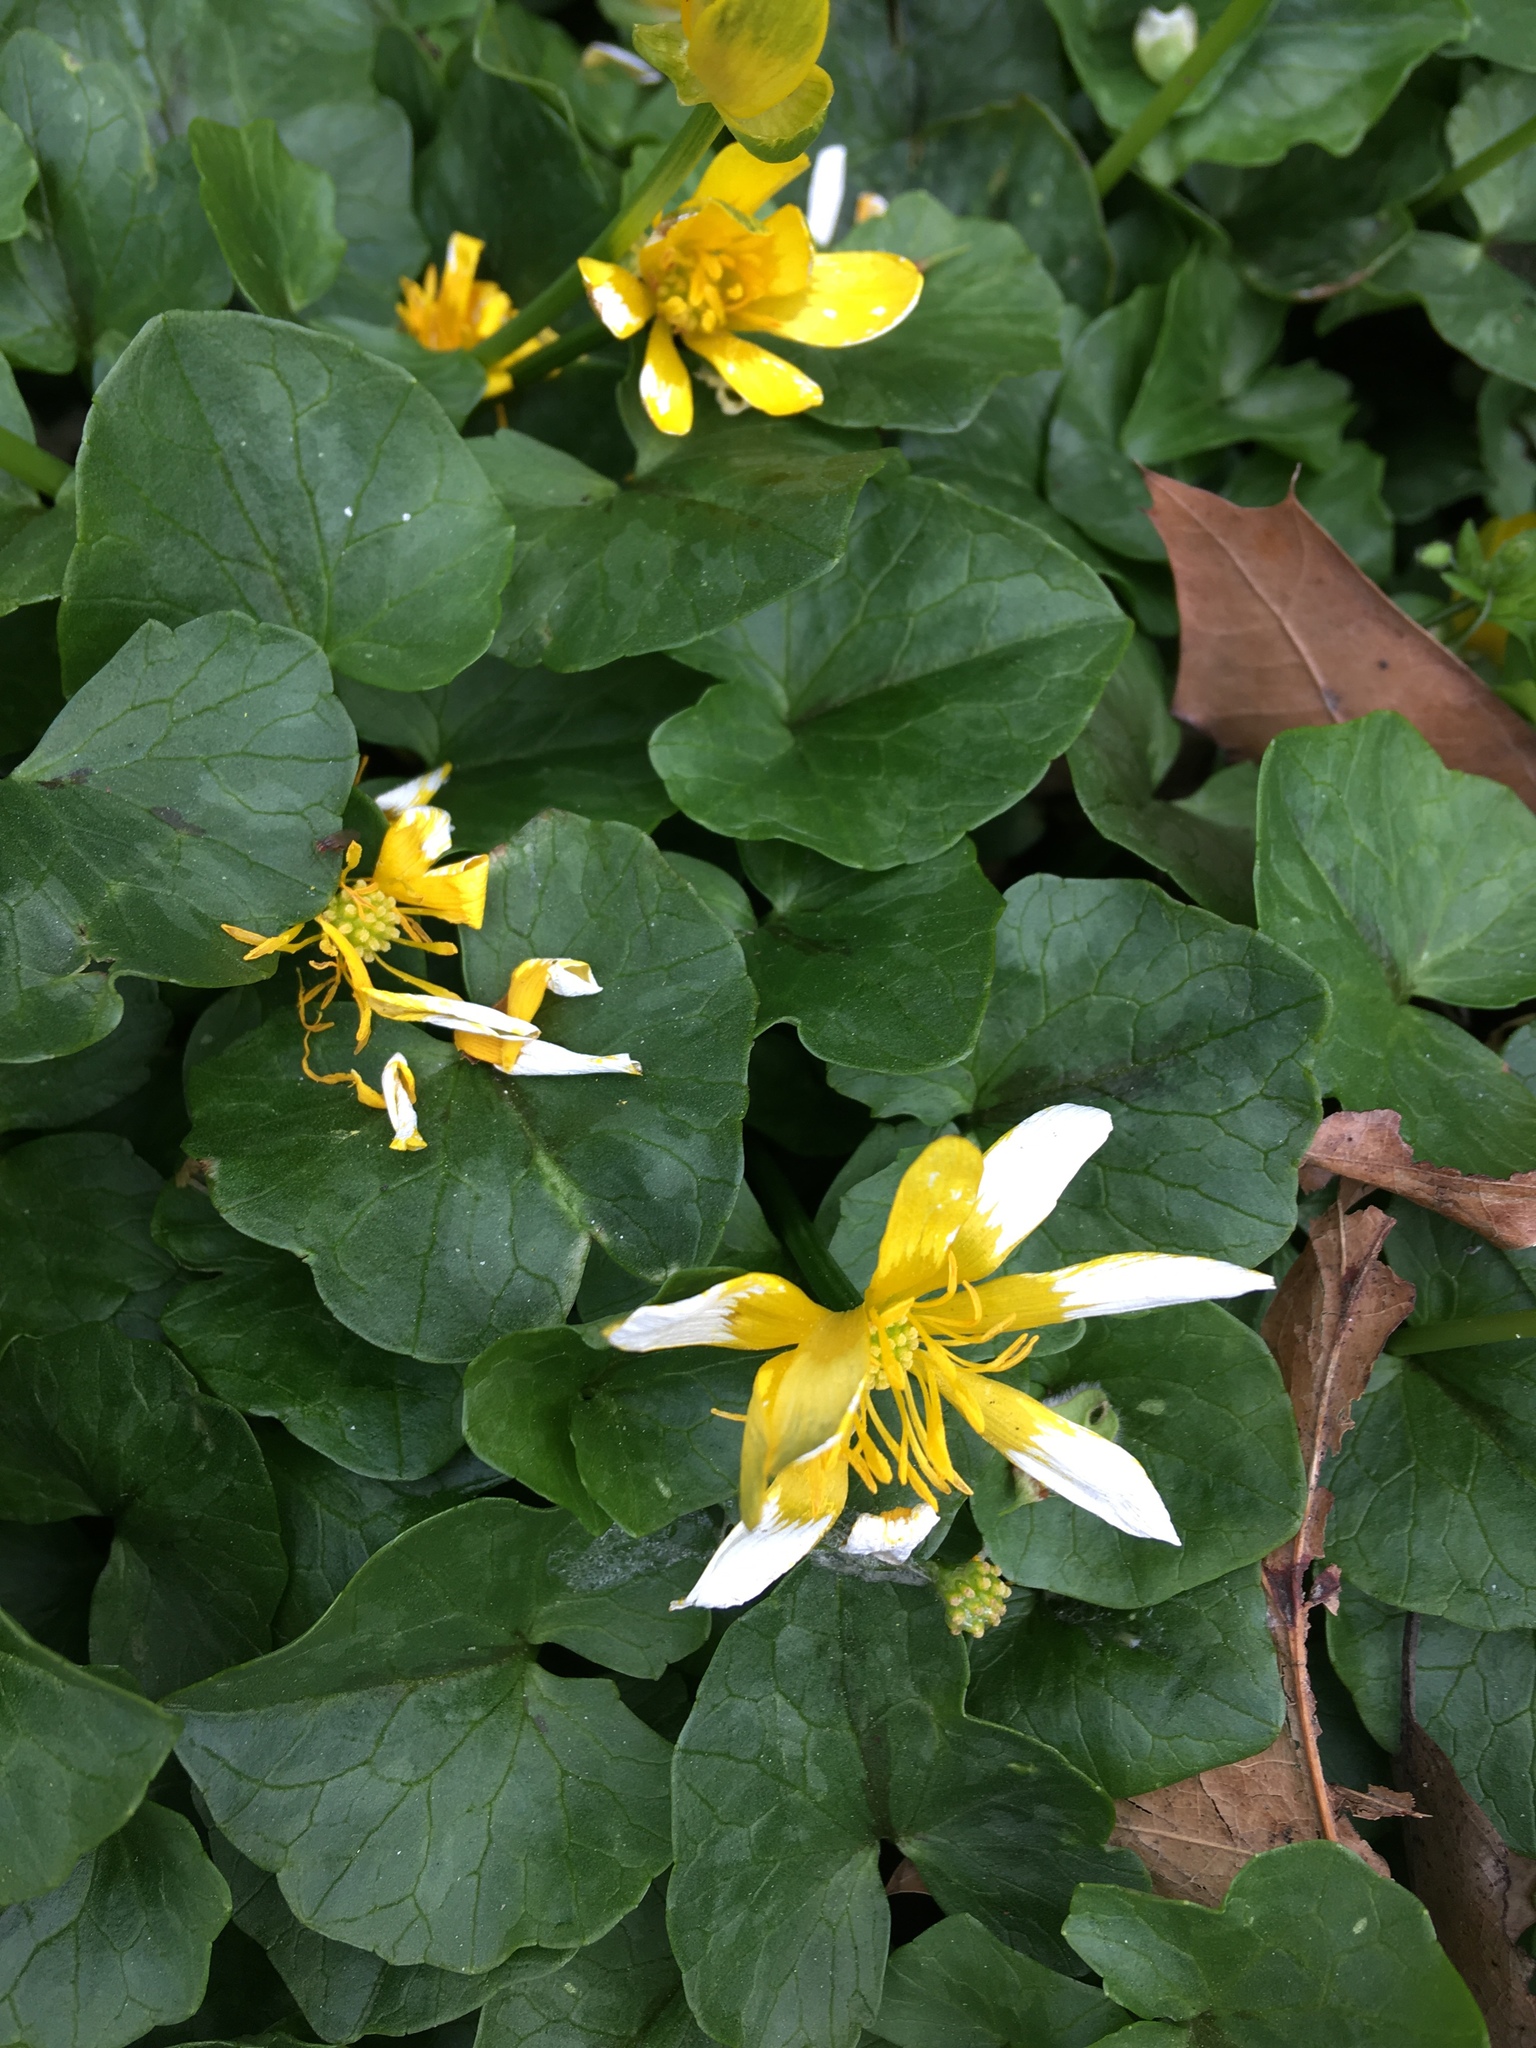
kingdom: Plantae
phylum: Tracheophyta
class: Magnoliopsida
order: Ranunculales
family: Ranunculaceae
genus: Ficaria
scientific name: Ficaria verna
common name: Lesser celandine
